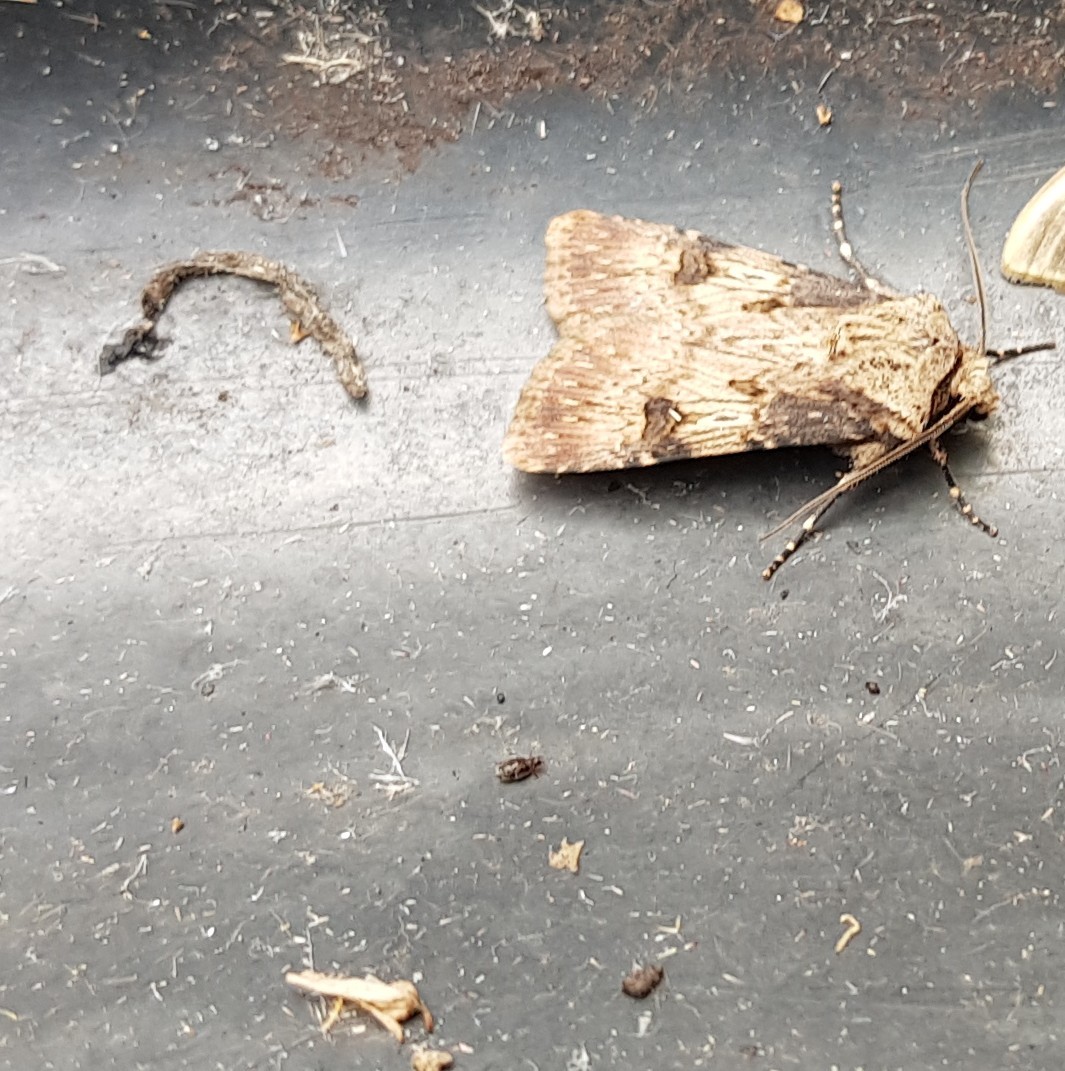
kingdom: Animalia
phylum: Arthropoda
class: Insecta
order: Lepidoptera
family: Noctuidae
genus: Agrotis
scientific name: Agrotis puta
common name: Shuttle-shaped dart
